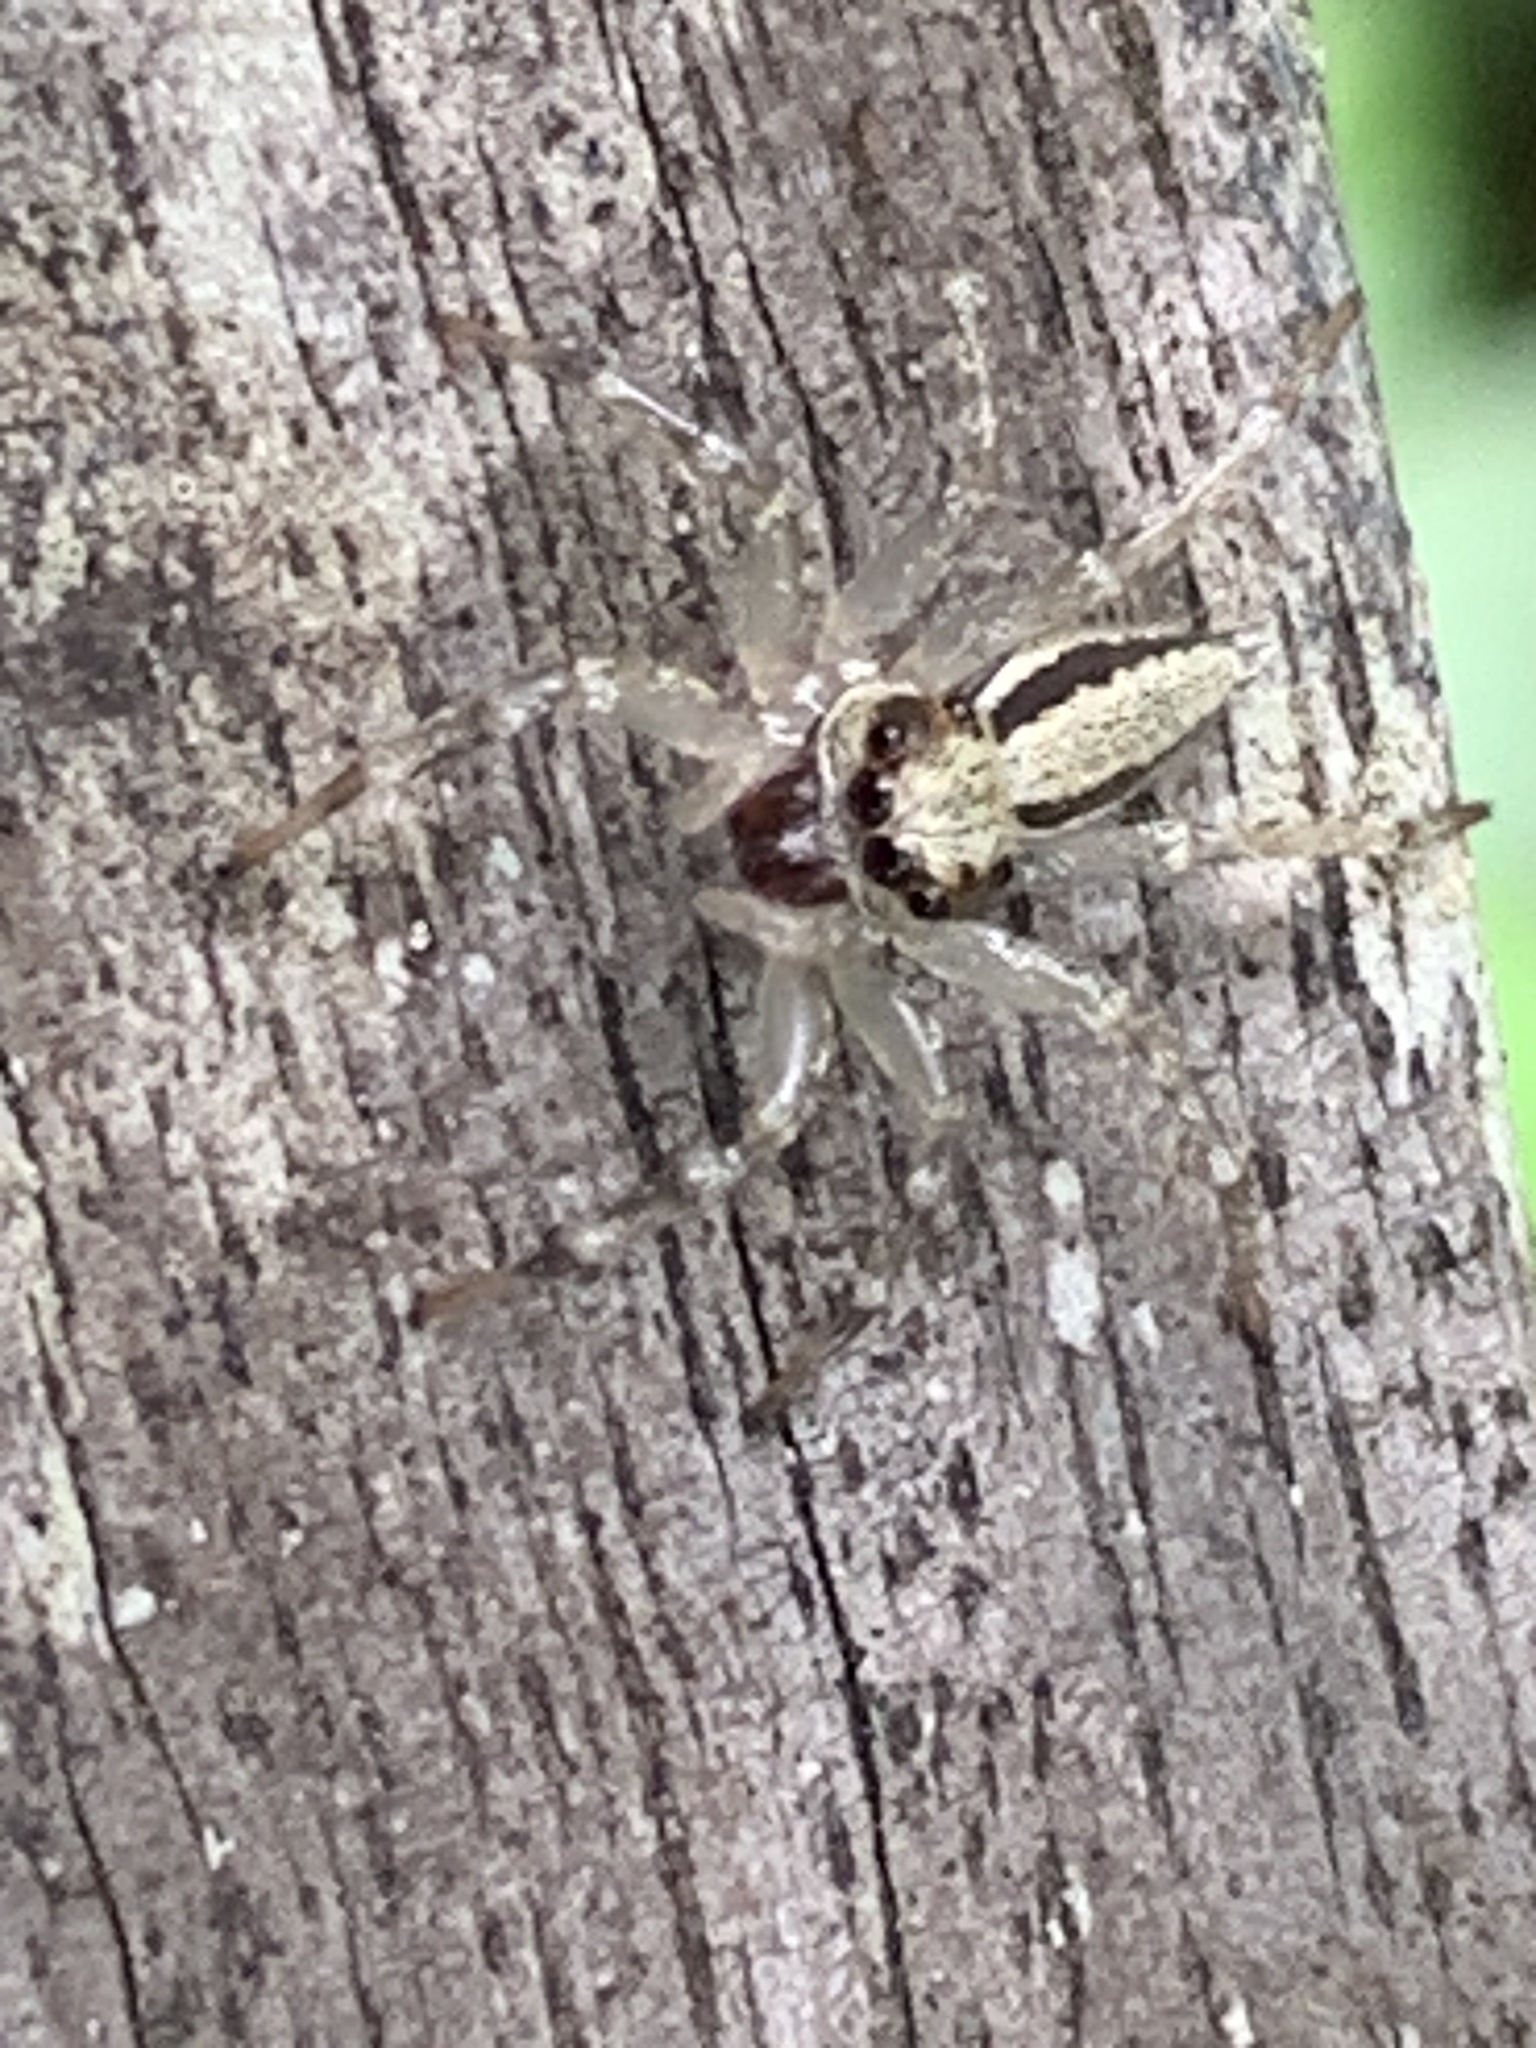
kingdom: Animalia
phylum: Arthropoda
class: Arachnida
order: Araneae
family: Salticidae
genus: Zenodorus
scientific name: Zenodorus swiftorum
